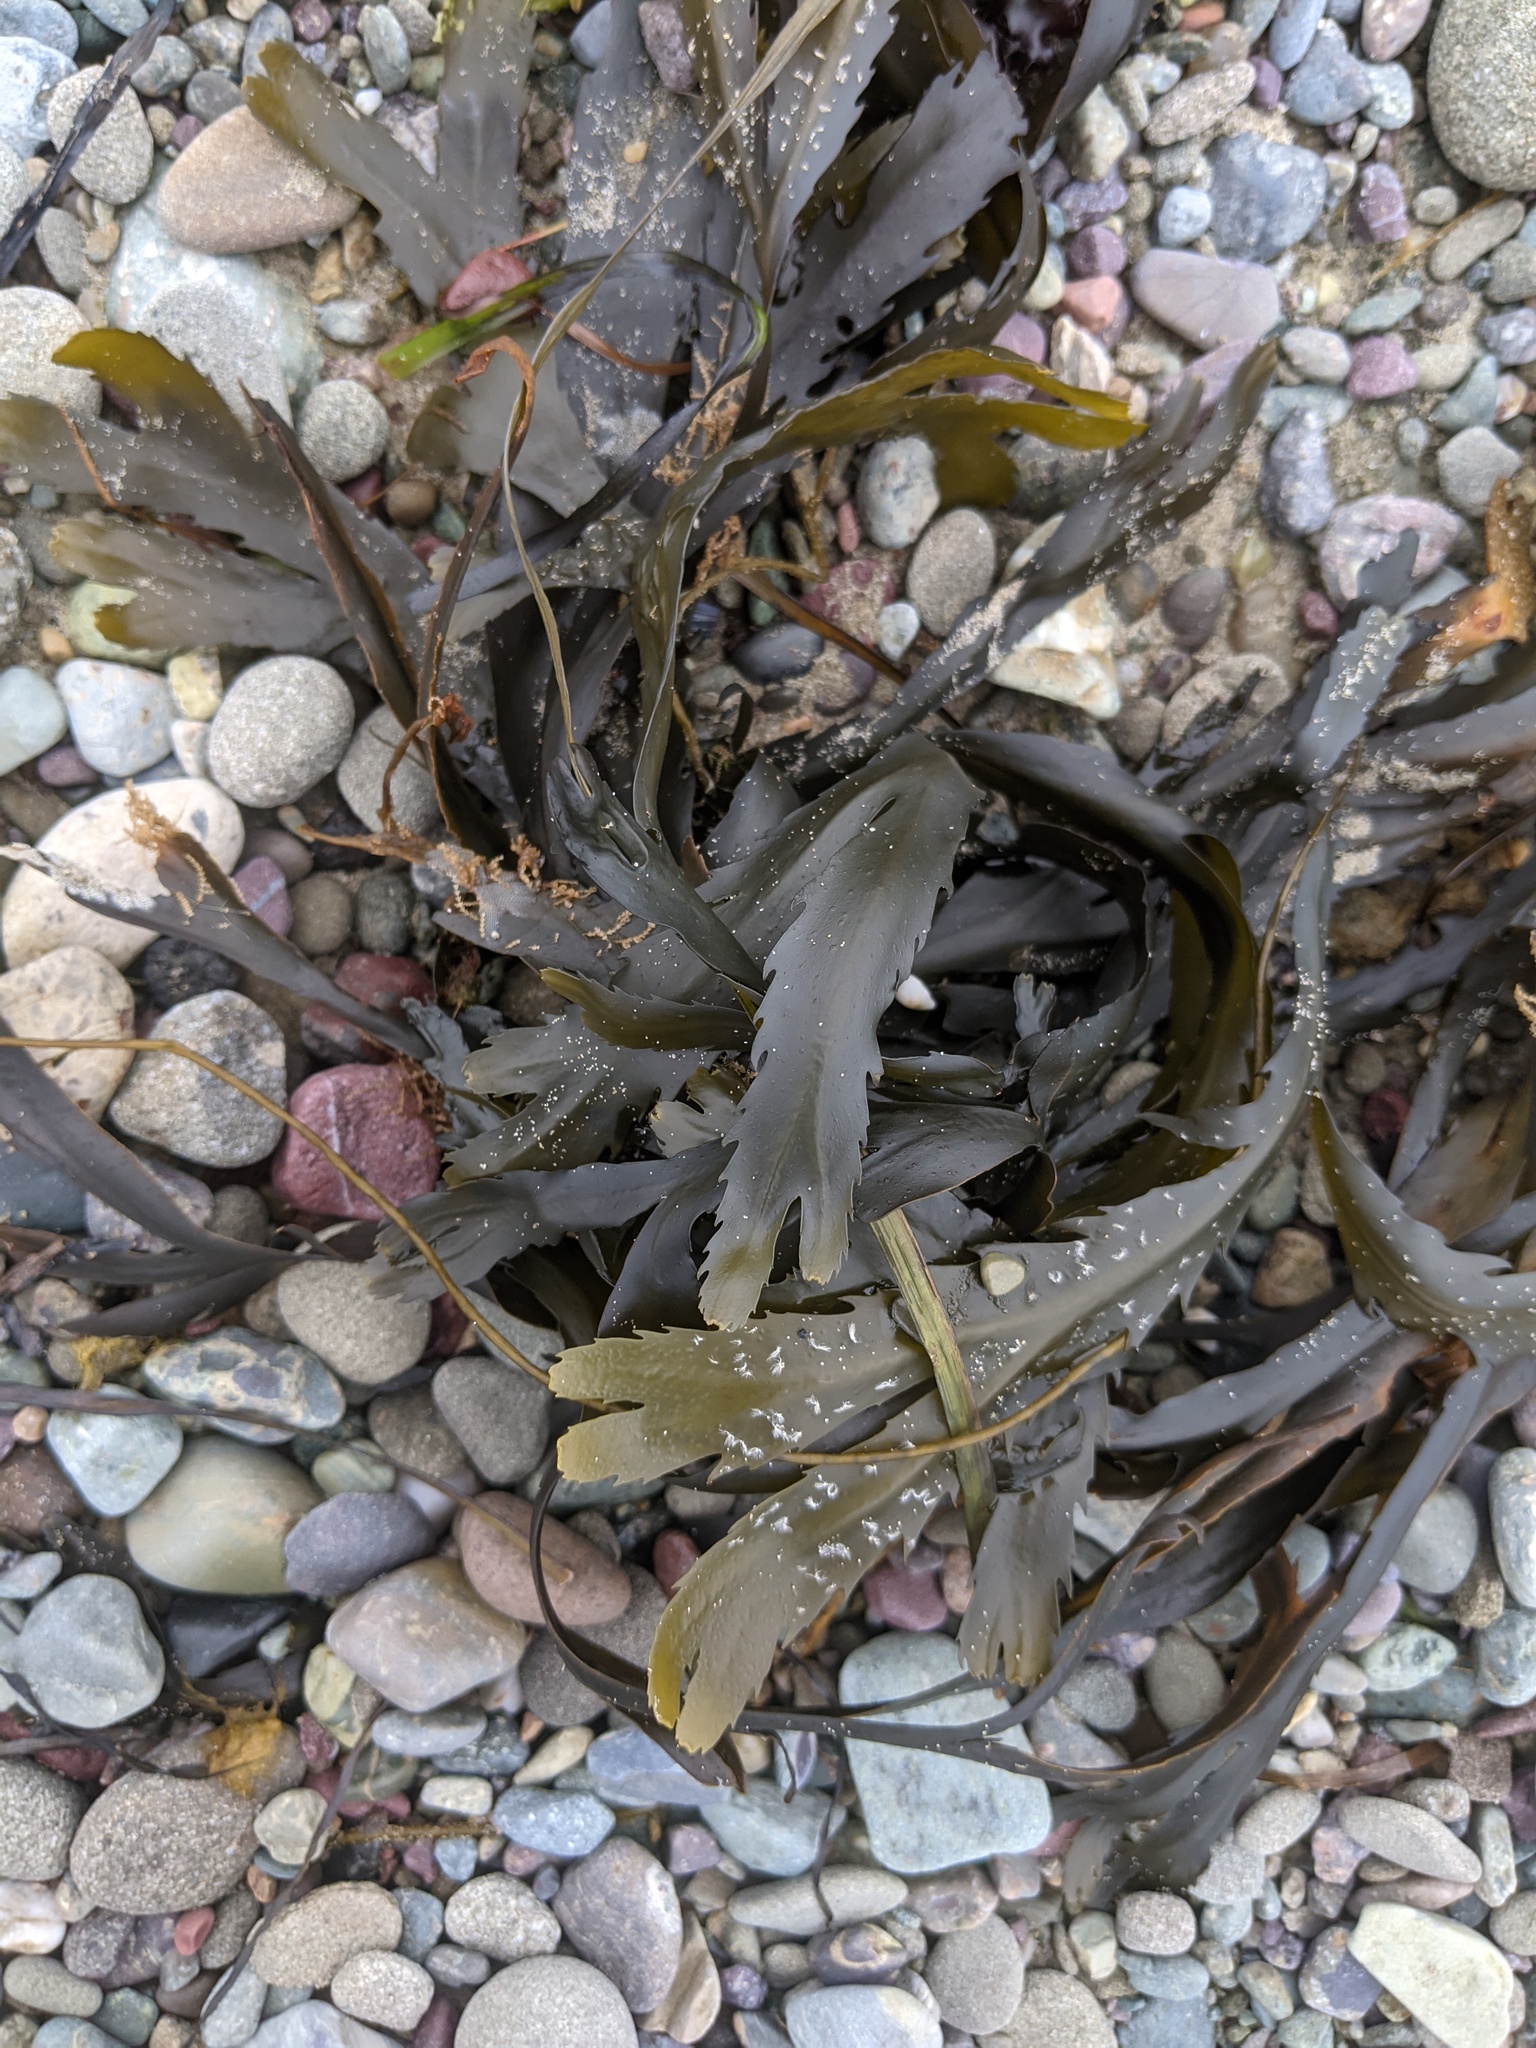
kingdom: Chromista
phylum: Ochrophyta
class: Phaeophyceae
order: Fucales
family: Fucaceae
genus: Fucus
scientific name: Fucus serratus
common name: Toothed wrack
